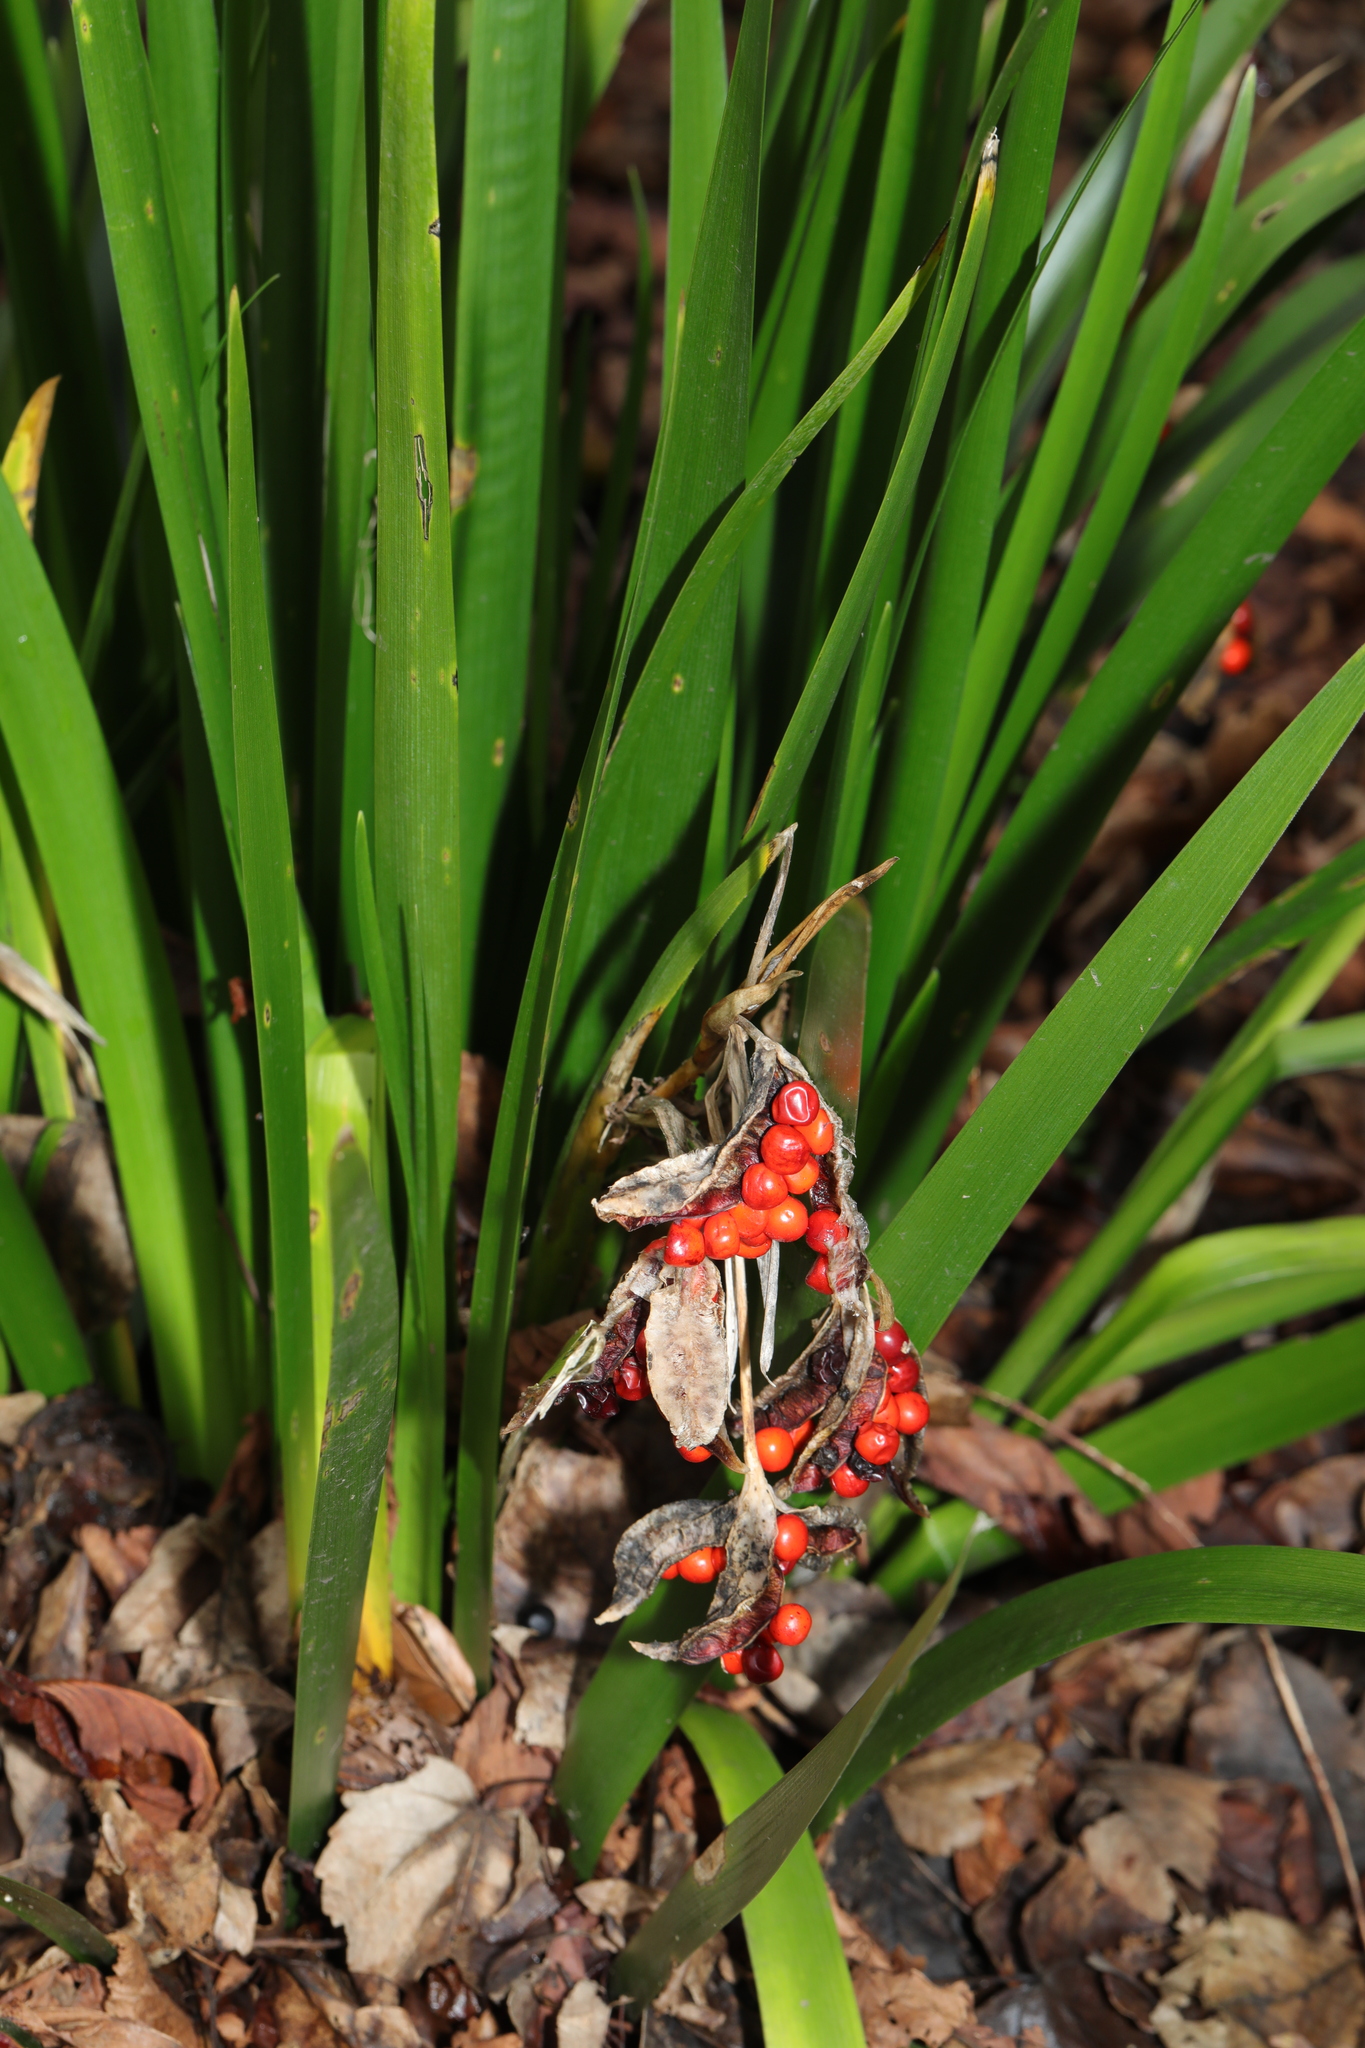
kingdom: Plantae
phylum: Tracheophyta
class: Liliopsida
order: Asparagales
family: Iridaceae
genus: Iris
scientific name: Iris foetidissima
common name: Stinking iris
